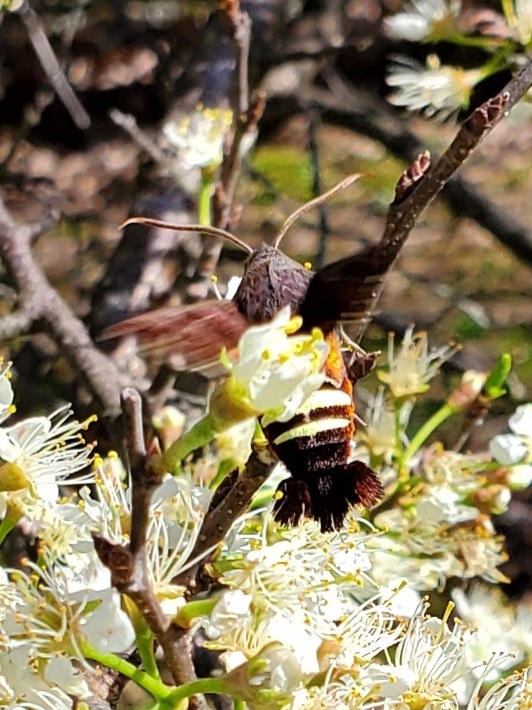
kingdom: Animalia
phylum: Arthropoda
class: Insecta
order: Lepidoptera
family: Sphingidae
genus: Amphion
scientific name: Amphion floridensis
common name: Nessus sphinx
